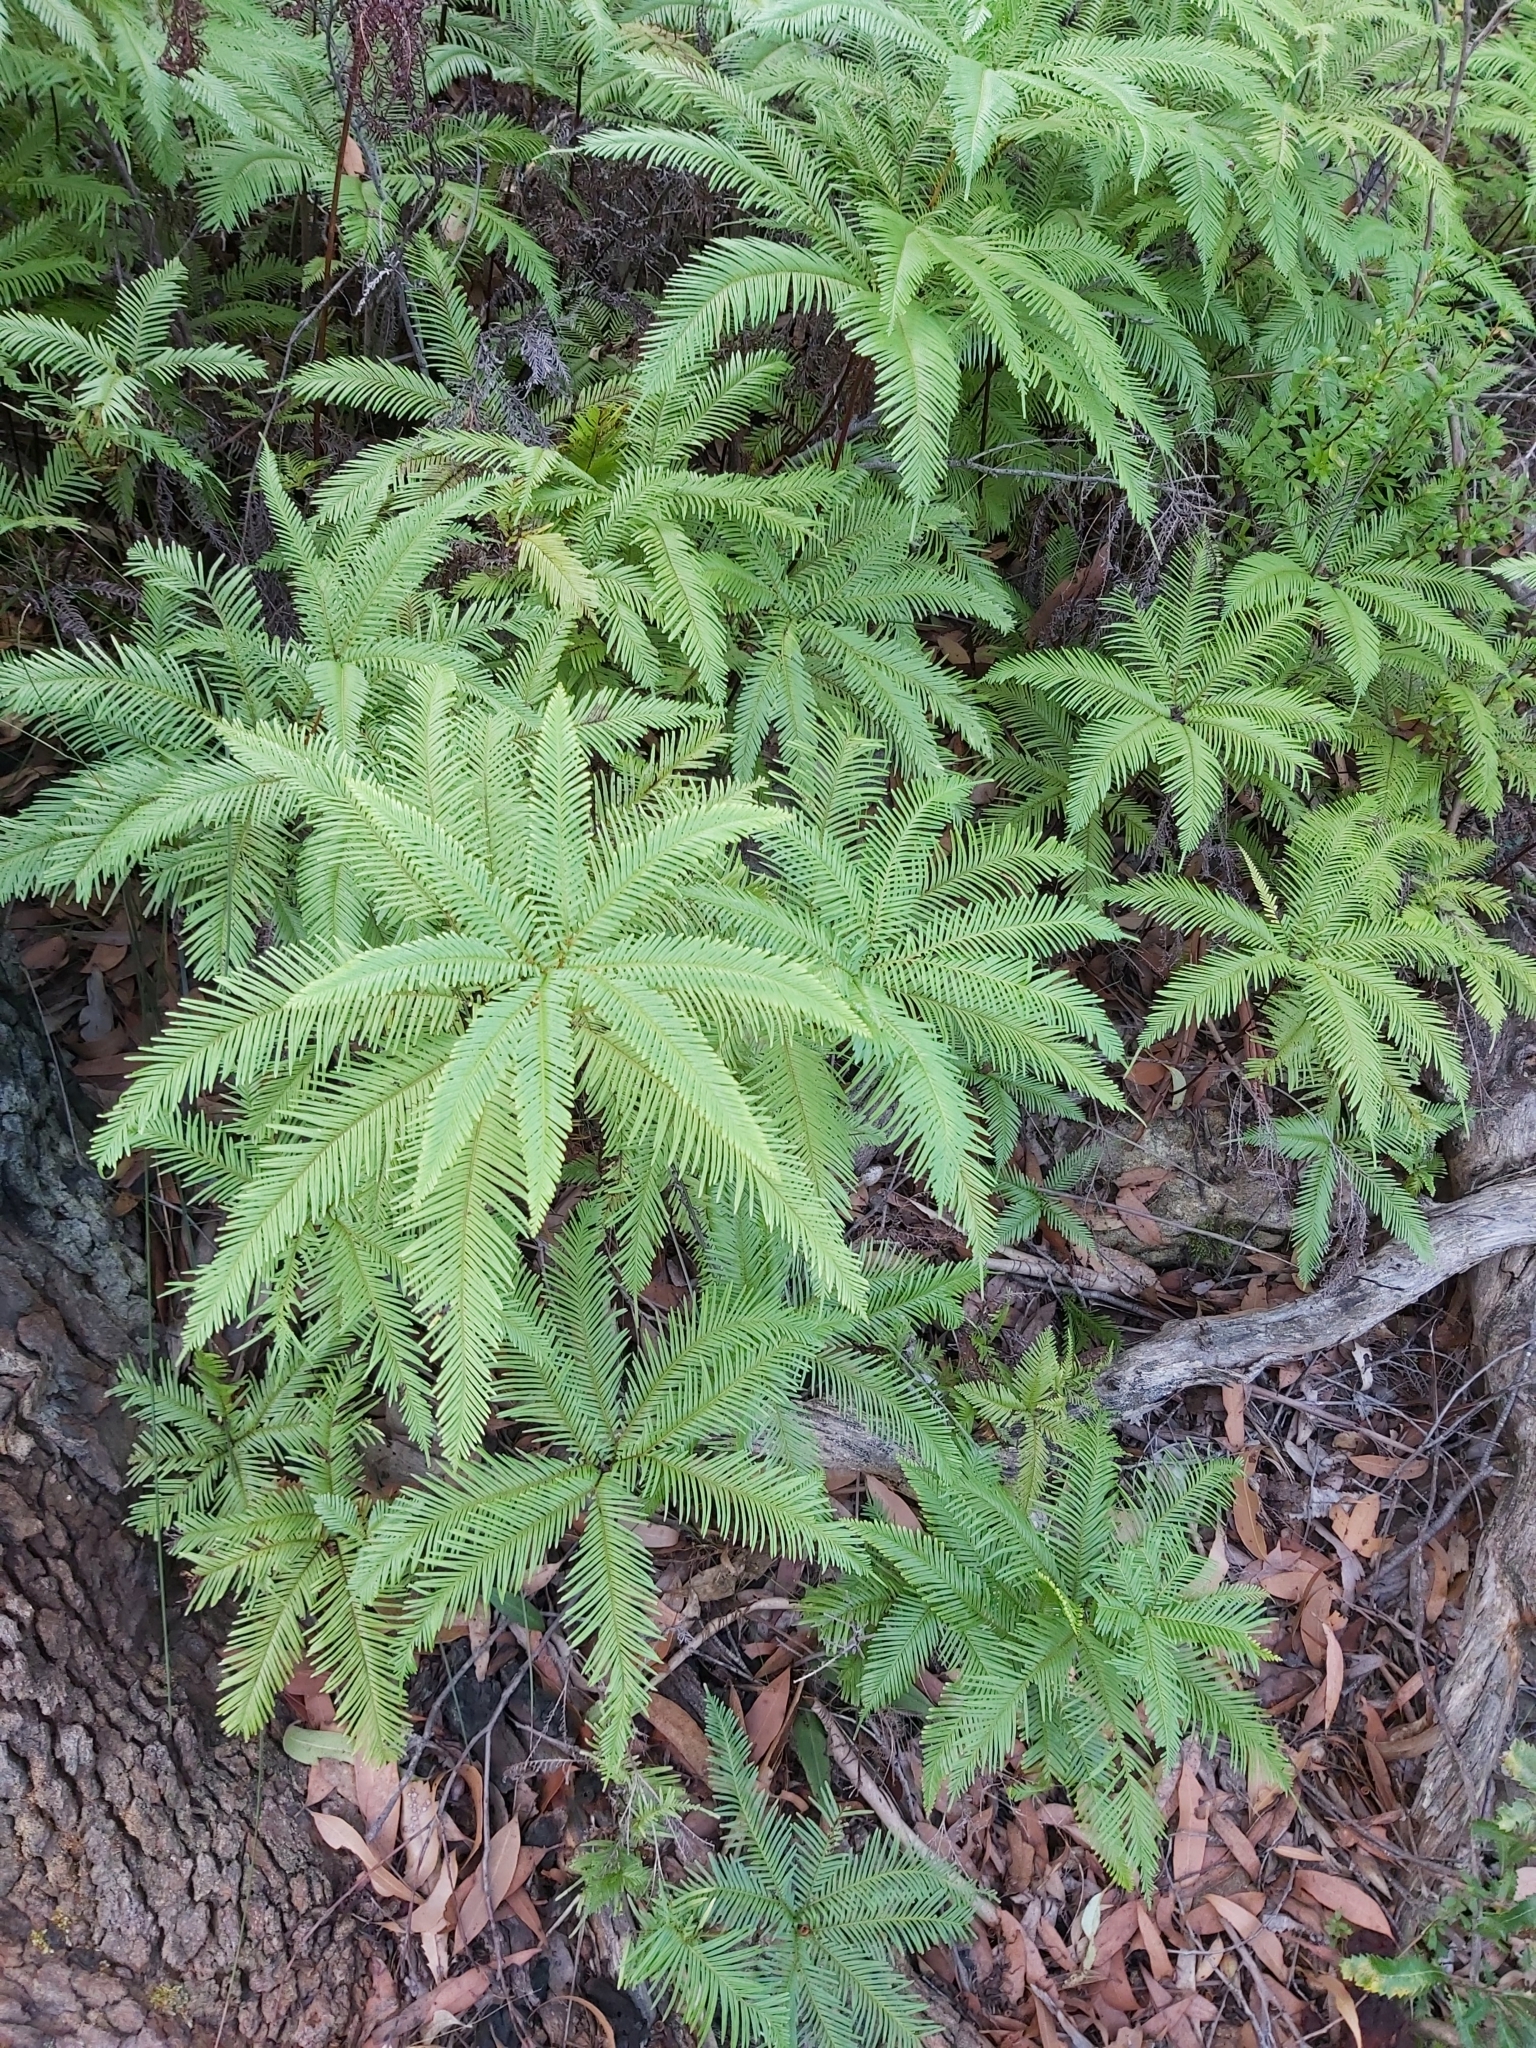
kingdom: Plantae
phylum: Tracheophyta
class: Polypodiopsida
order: Gleicheniales
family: Gleicheniaceae
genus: Sticherus
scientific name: Sticherus flabellatus
